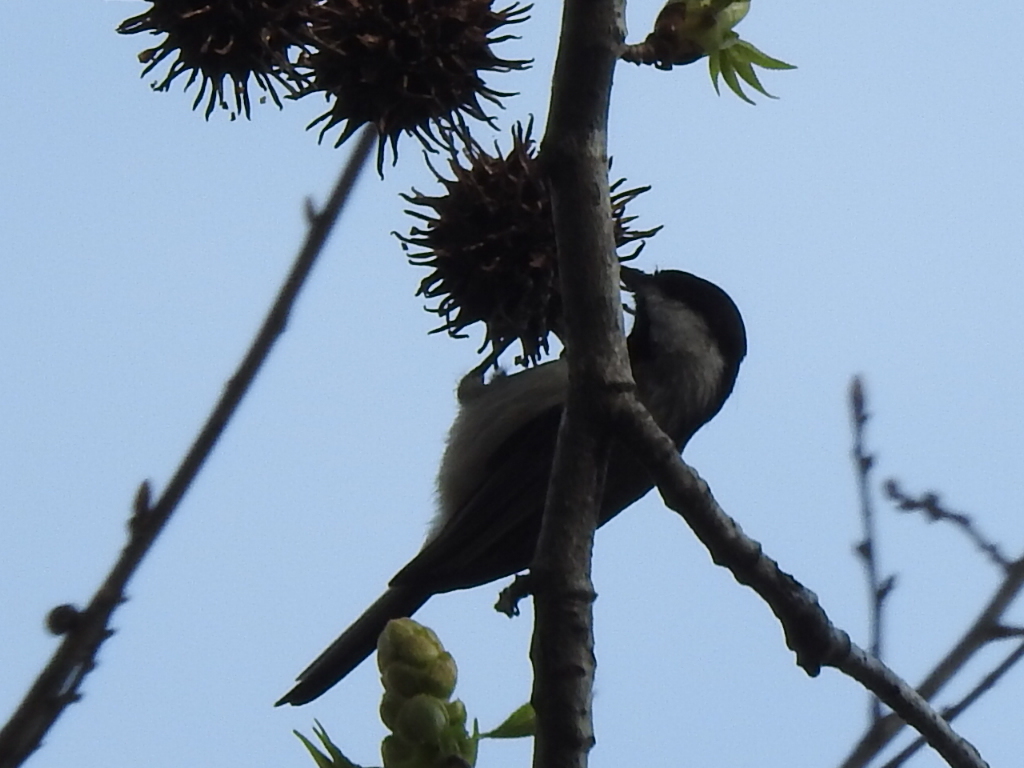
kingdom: Animalia
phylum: Chordata
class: Aves
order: Passeriformes
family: Paridae
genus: Poecile
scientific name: Poecile carolinensis
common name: Carolina chickadee
